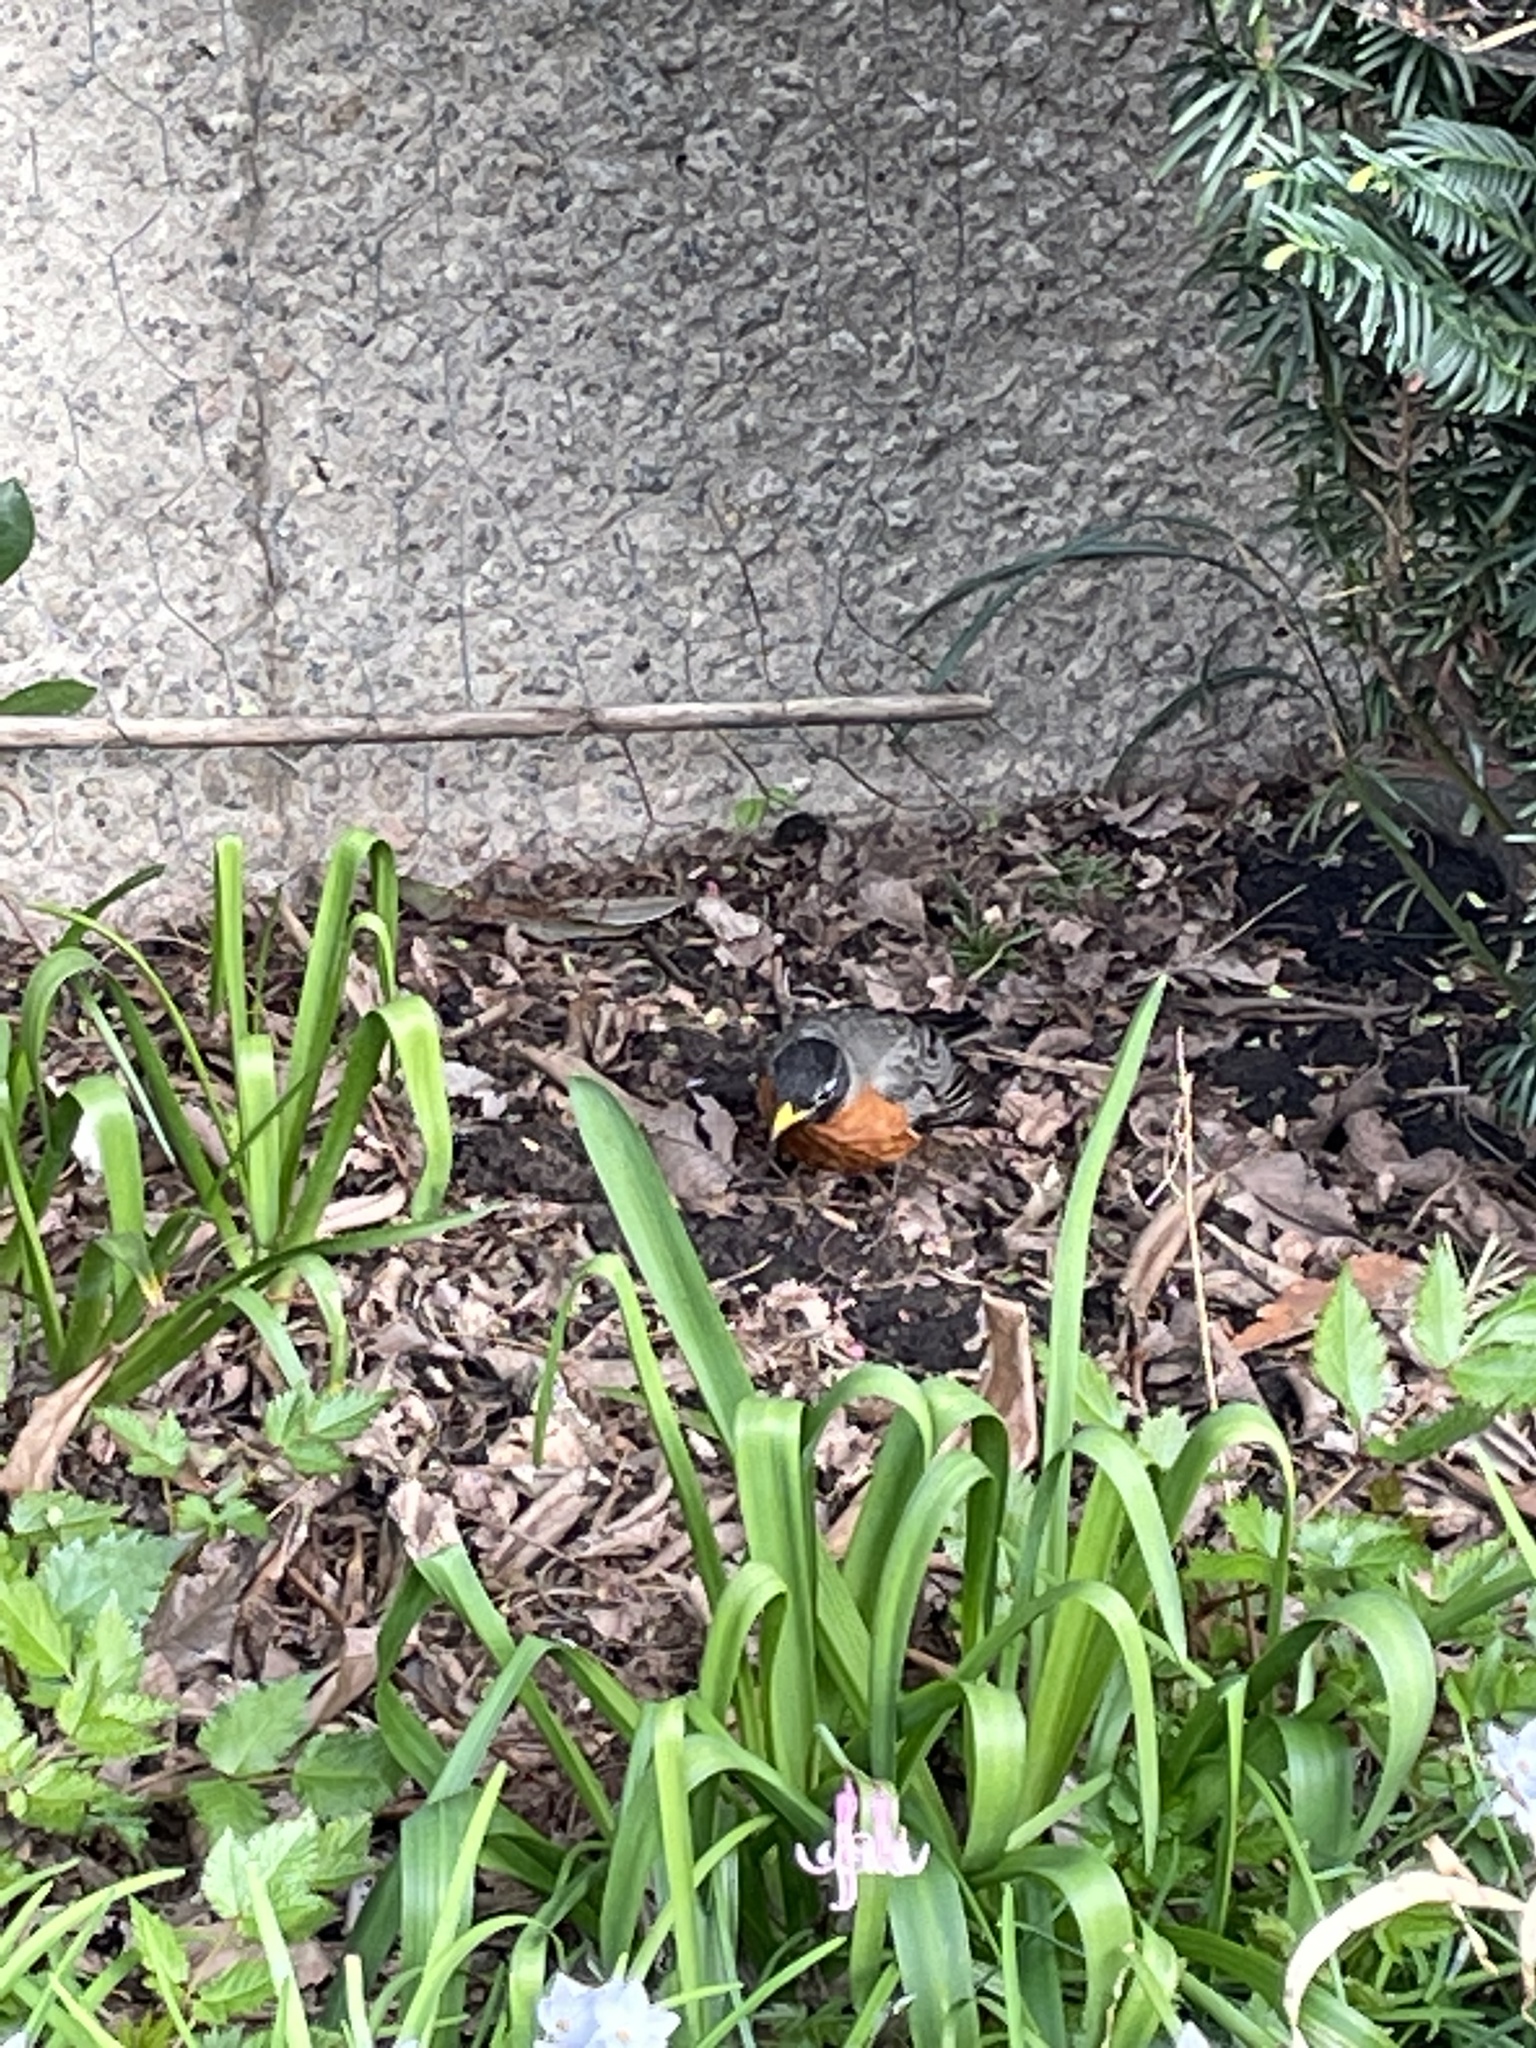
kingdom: Animalia
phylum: Chordata
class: Aves
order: Passeriformes
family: Turdidae
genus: Turdus
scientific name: Turdus migratorius
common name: American robin
